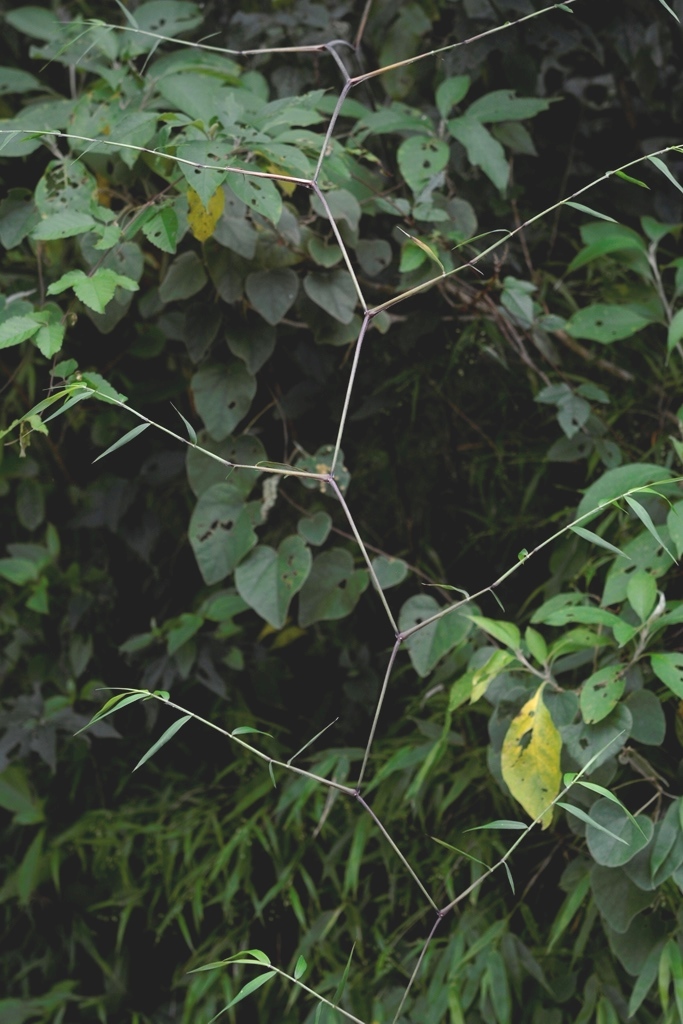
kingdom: Plantae
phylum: Tracheophyta
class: Liliopsida
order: Poales
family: Poaceae
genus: Lasiacis
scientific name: Lasiacis nigra
